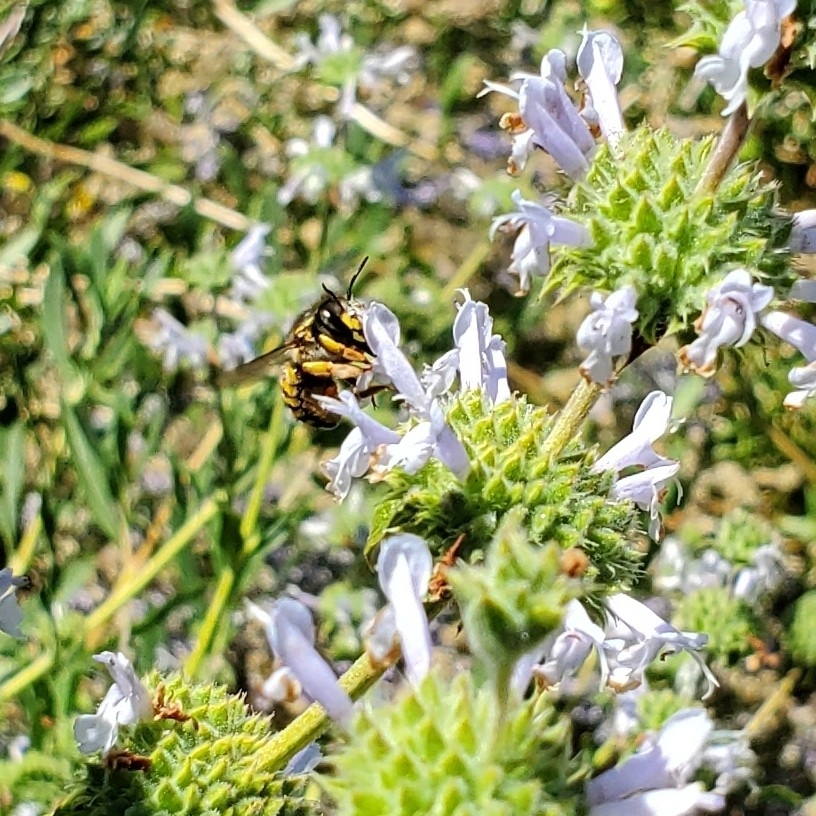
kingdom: Animalia
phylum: Arthropoda
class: Insecta
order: Hymenoptera
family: Megachilidae
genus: Anthidium
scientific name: Anthidium manicatum
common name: Wool carder bee
